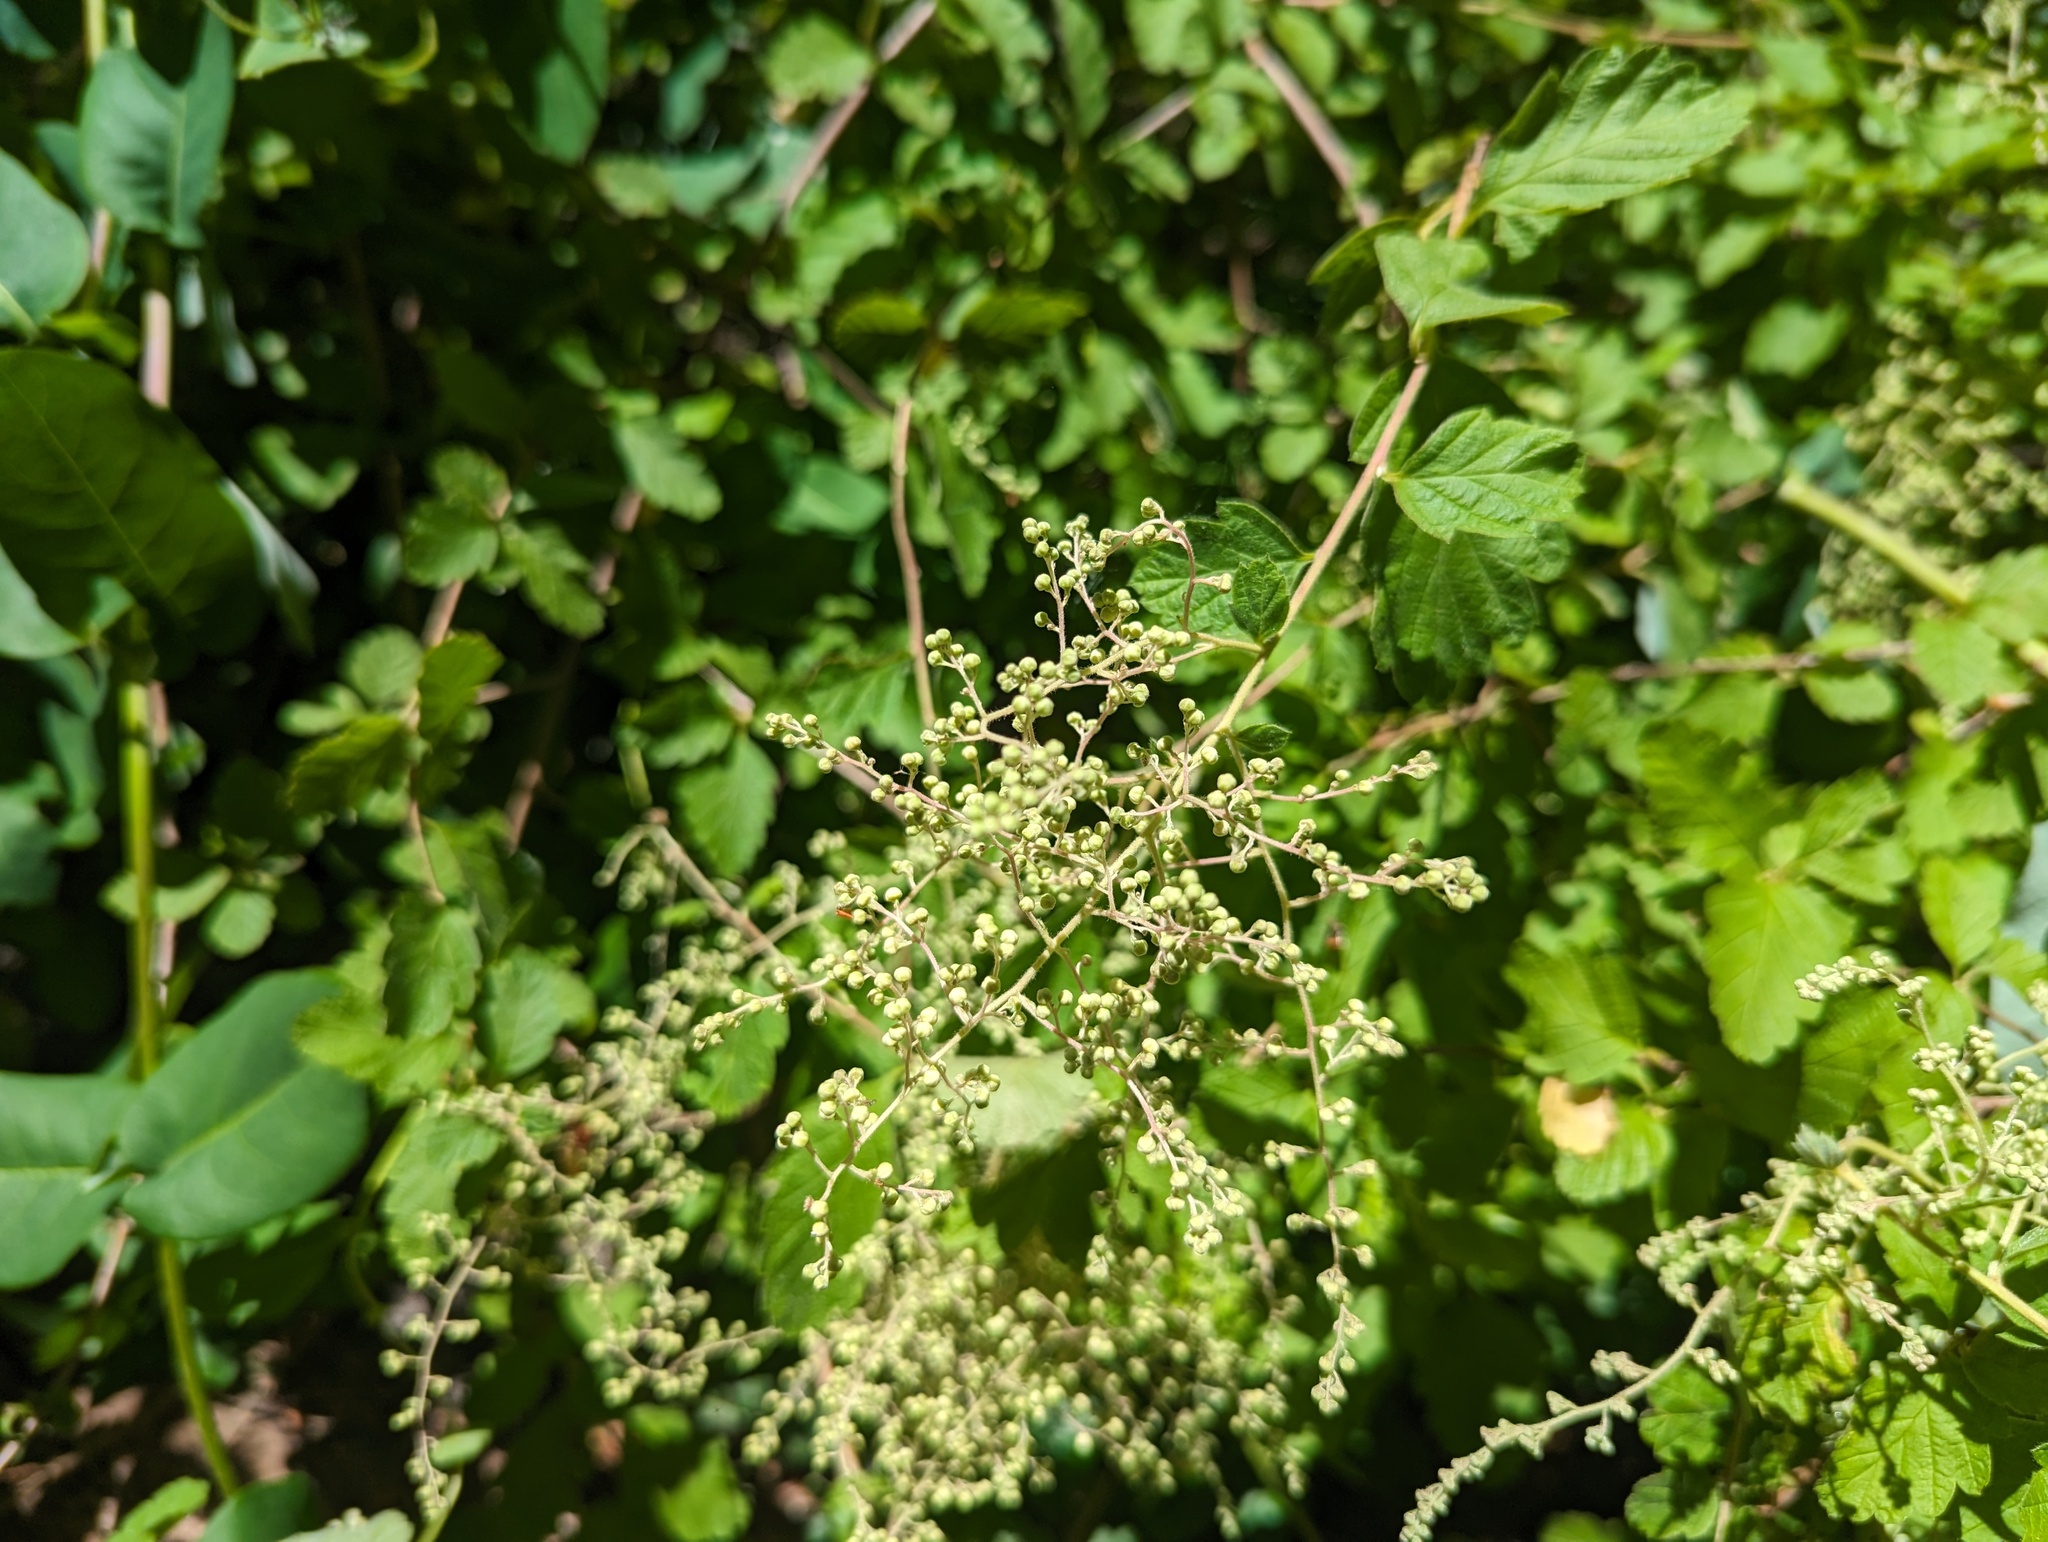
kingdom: Plantae
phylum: Tracheophyta
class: Magnoliopsida
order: Rosales
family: Rosaceae
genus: Holodiscus
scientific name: Holodiscus discolor
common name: Oceanspray
